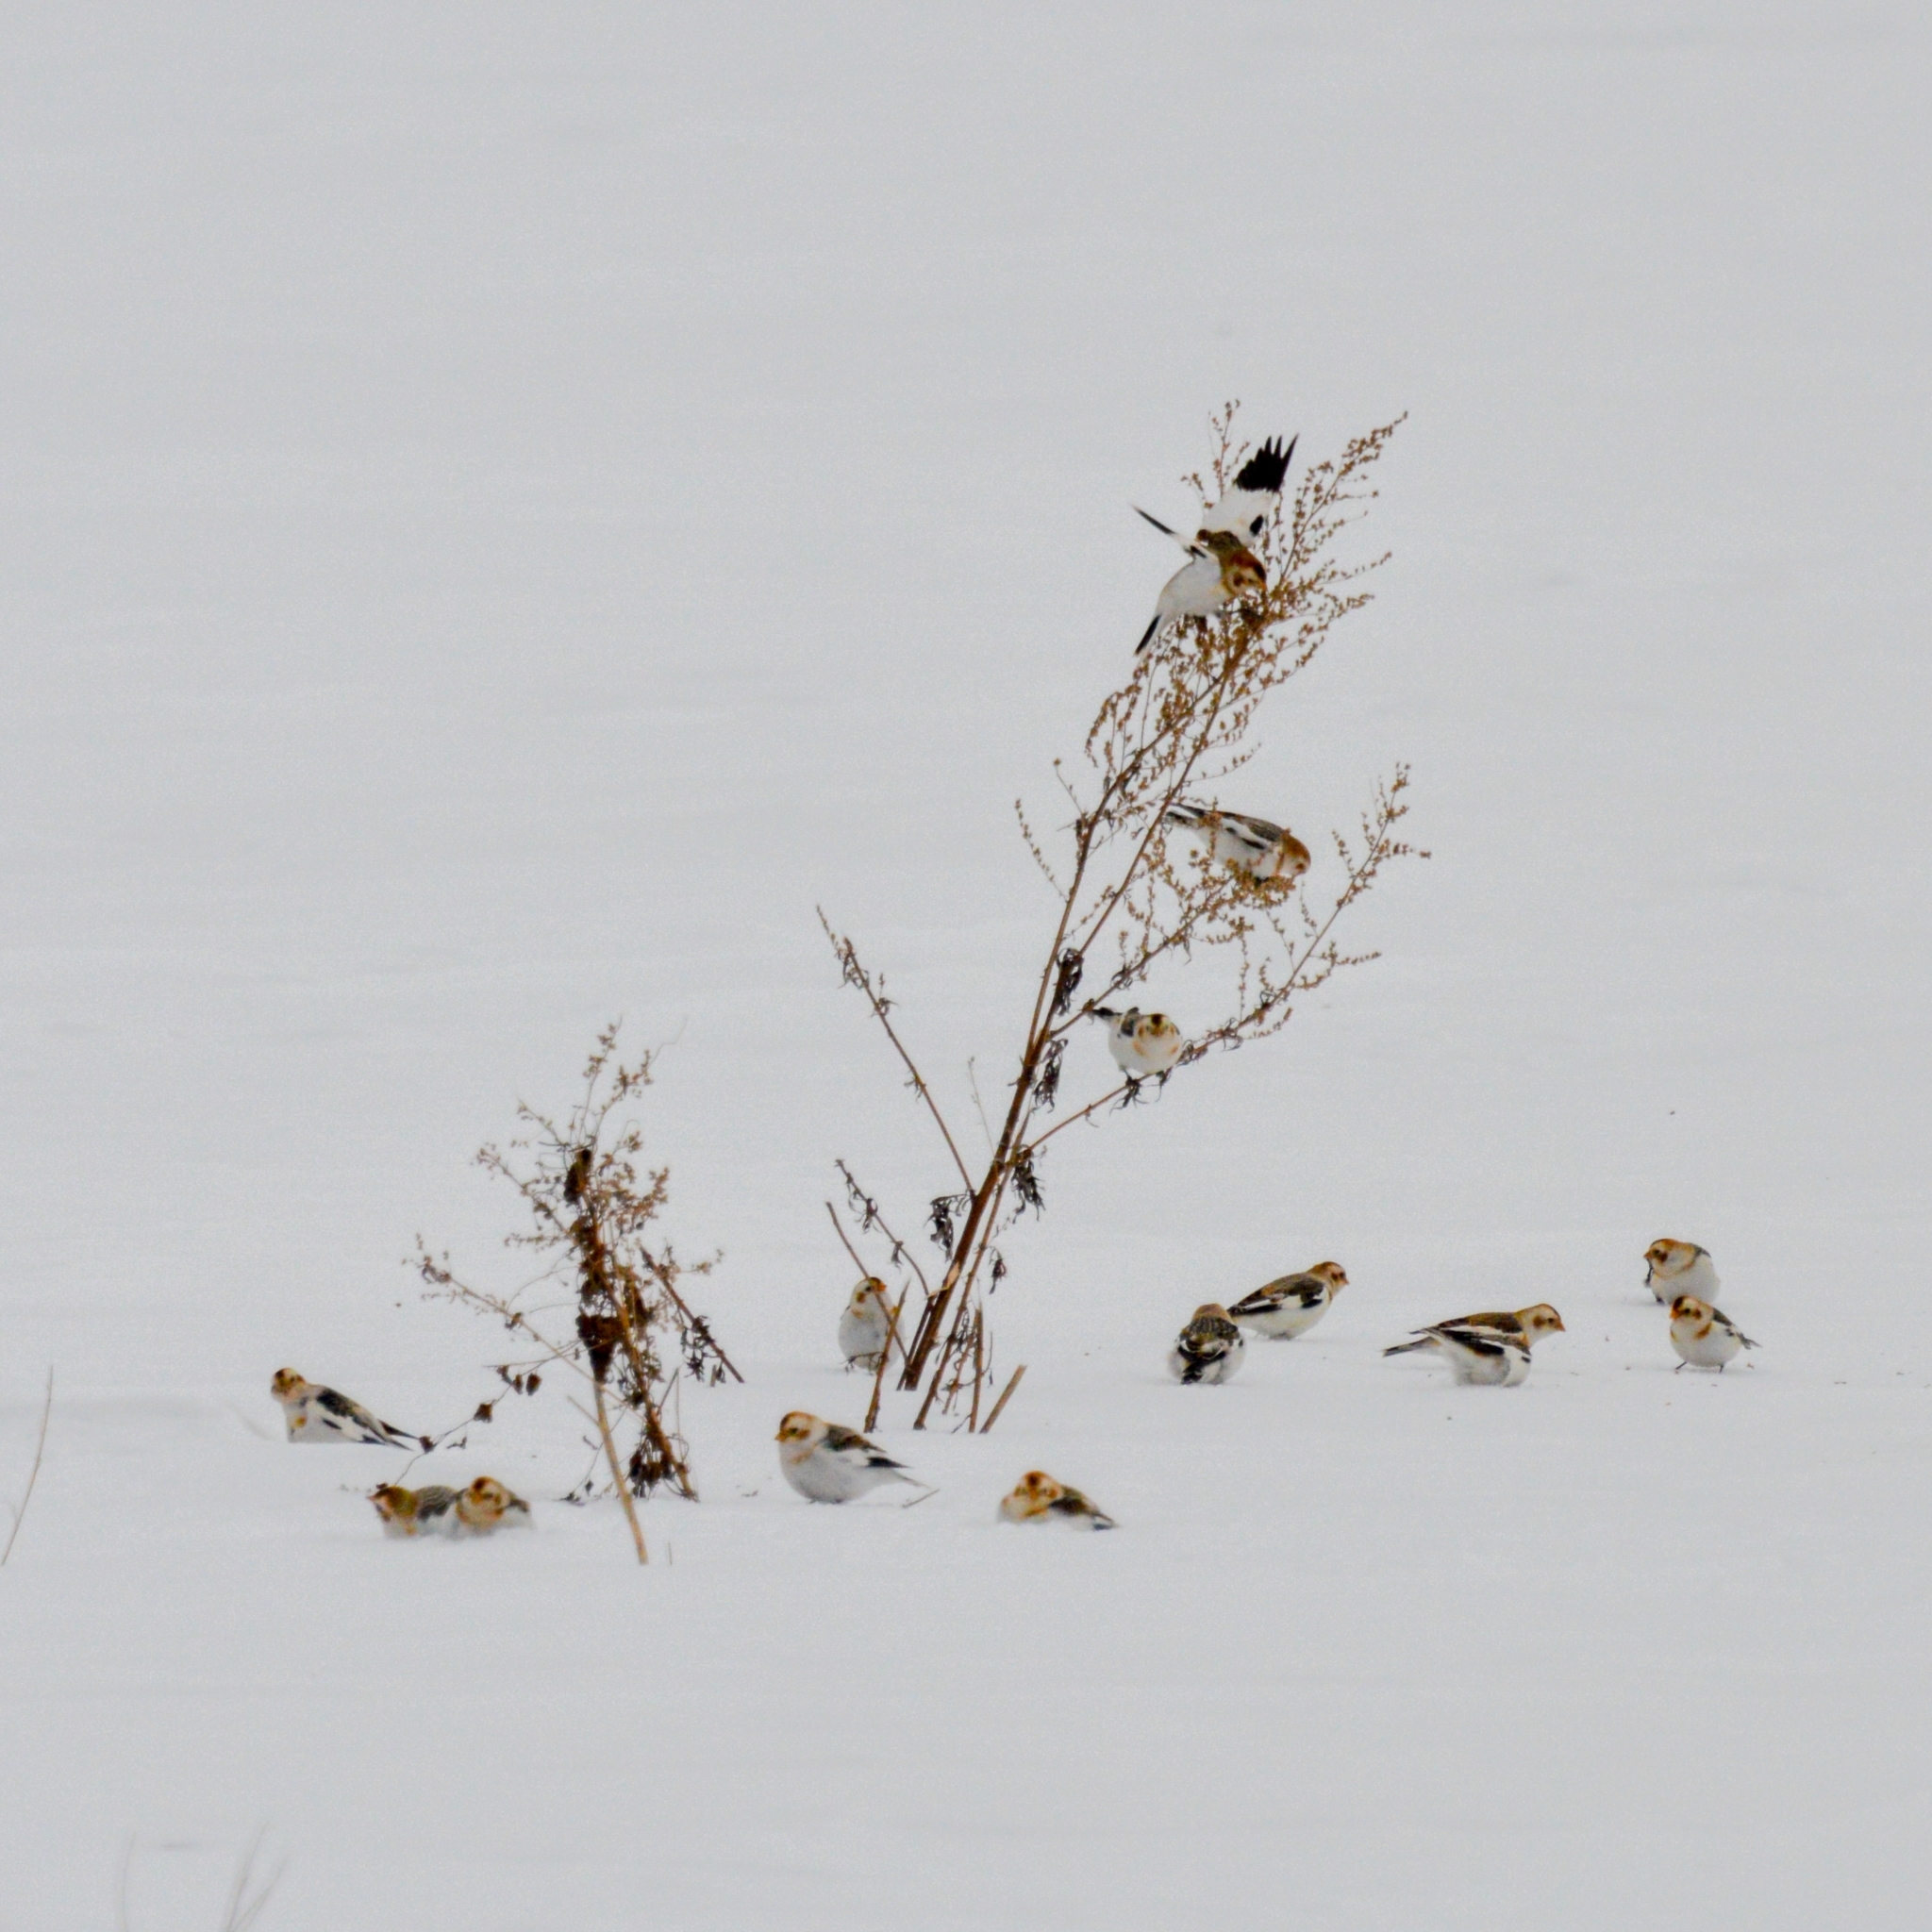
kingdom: Animalia
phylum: Chordata
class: Aves
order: Passeriformes
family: Calcariidae
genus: Plectrophenax
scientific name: Plectrophenax nivalis
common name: Snow bunting
